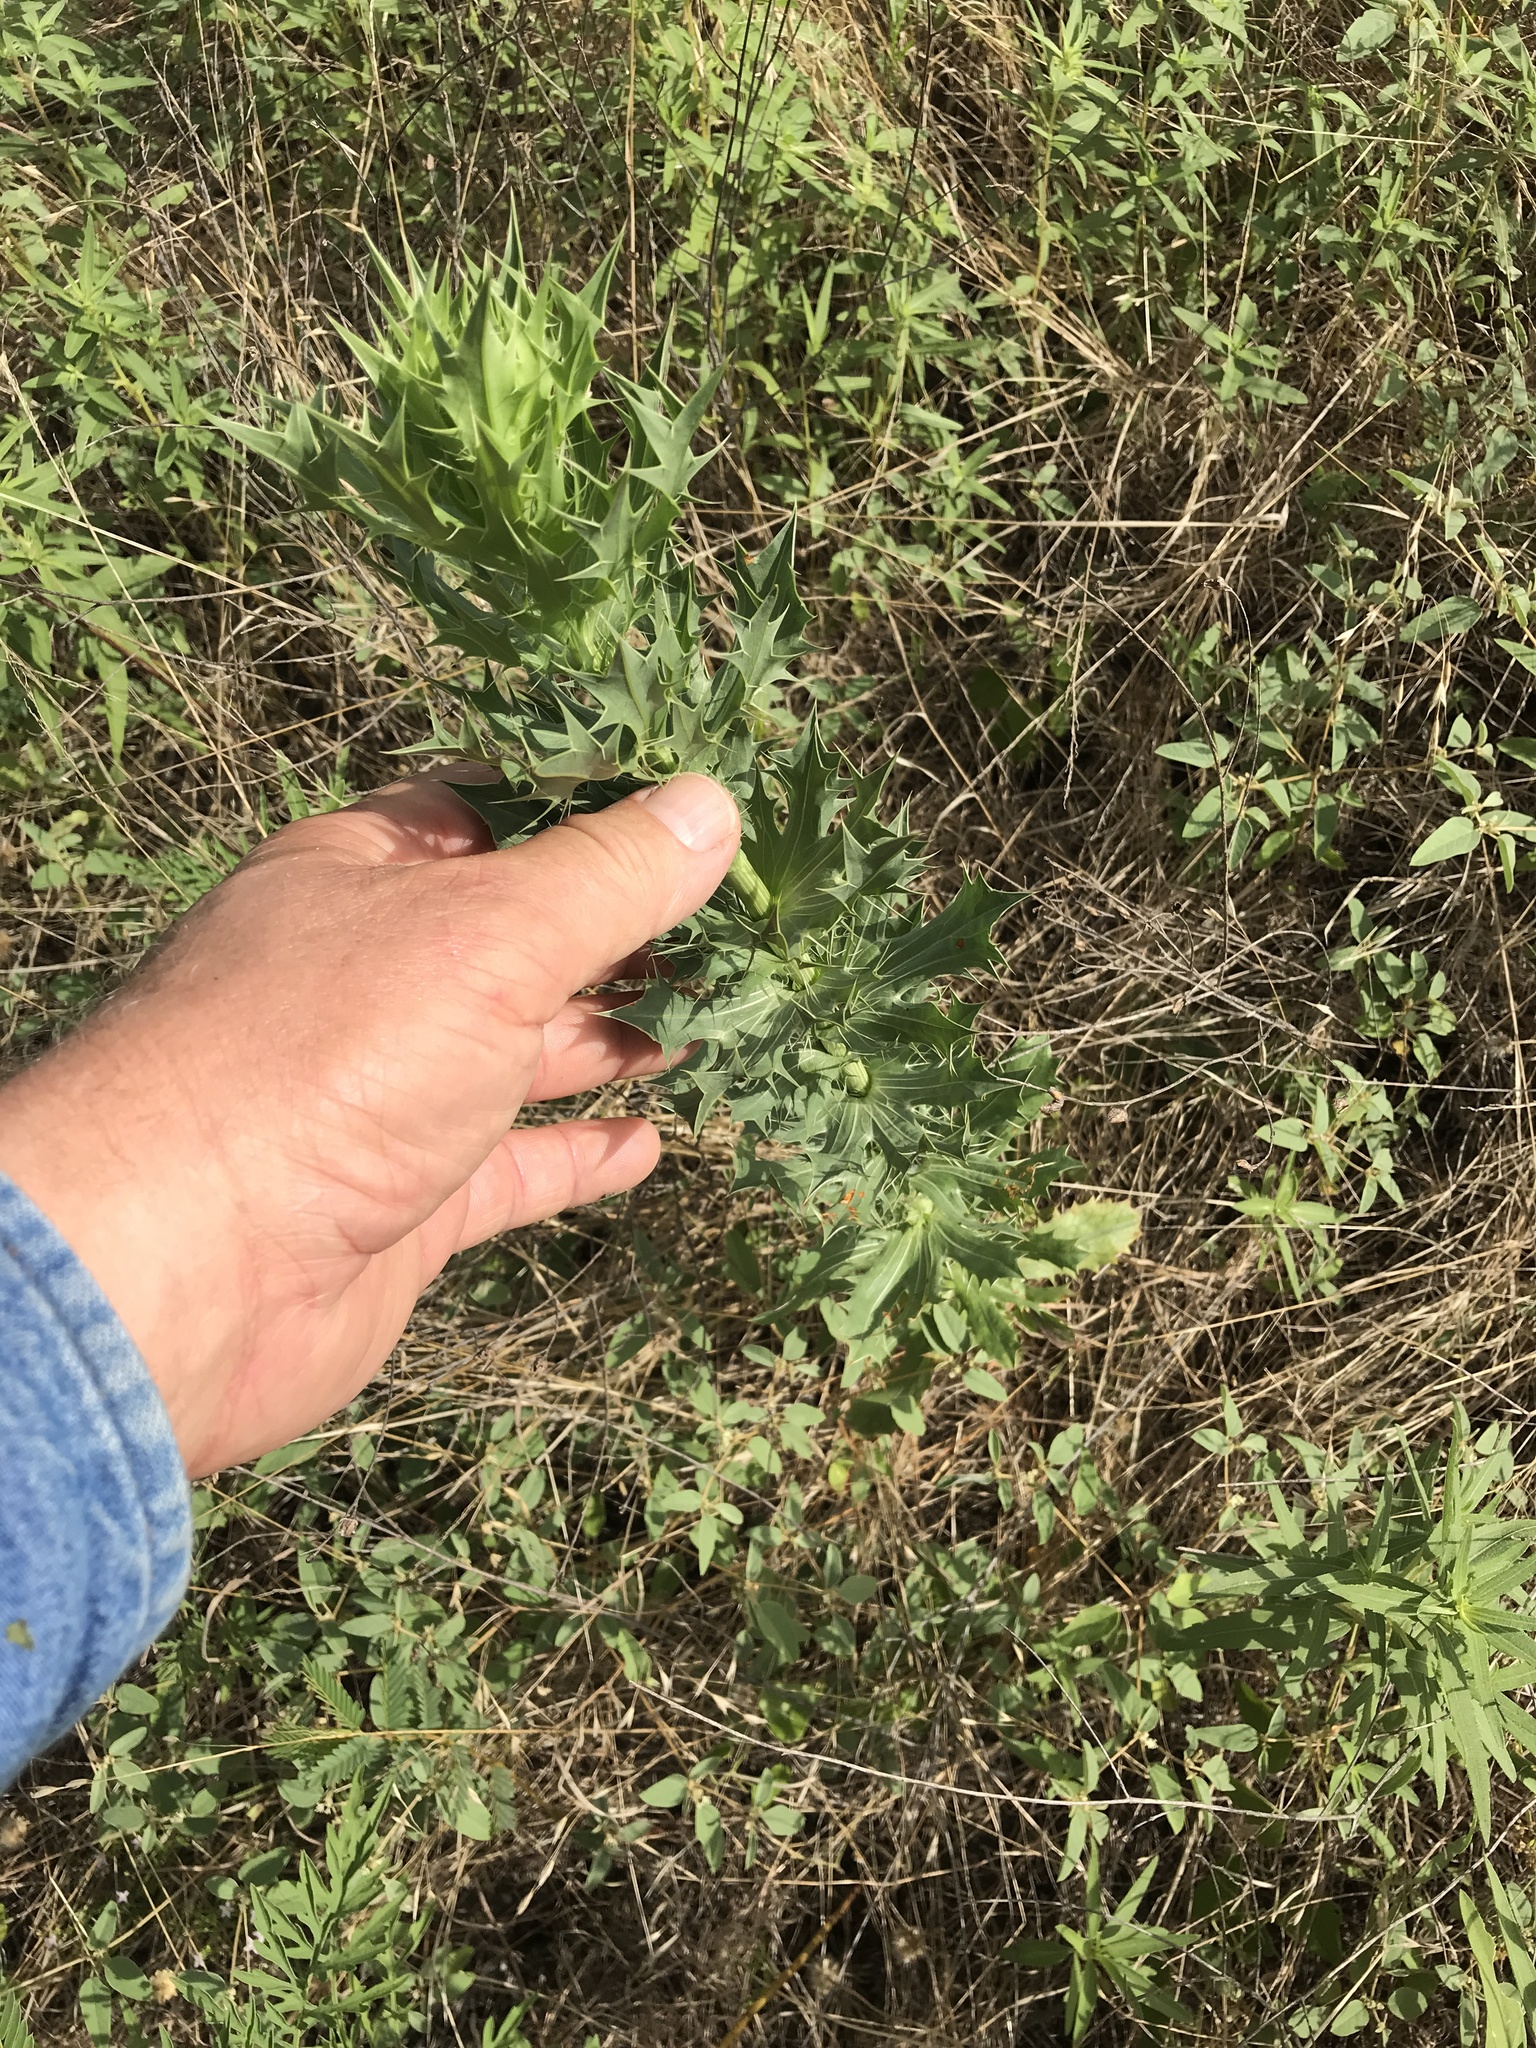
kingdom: Plantae
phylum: Tracheophyta
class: Magnoliopsida
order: Apiales
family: Apiaceae
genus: Eryngium
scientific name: Eryngium leavenworthii
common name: Leavenworth's eryngo
